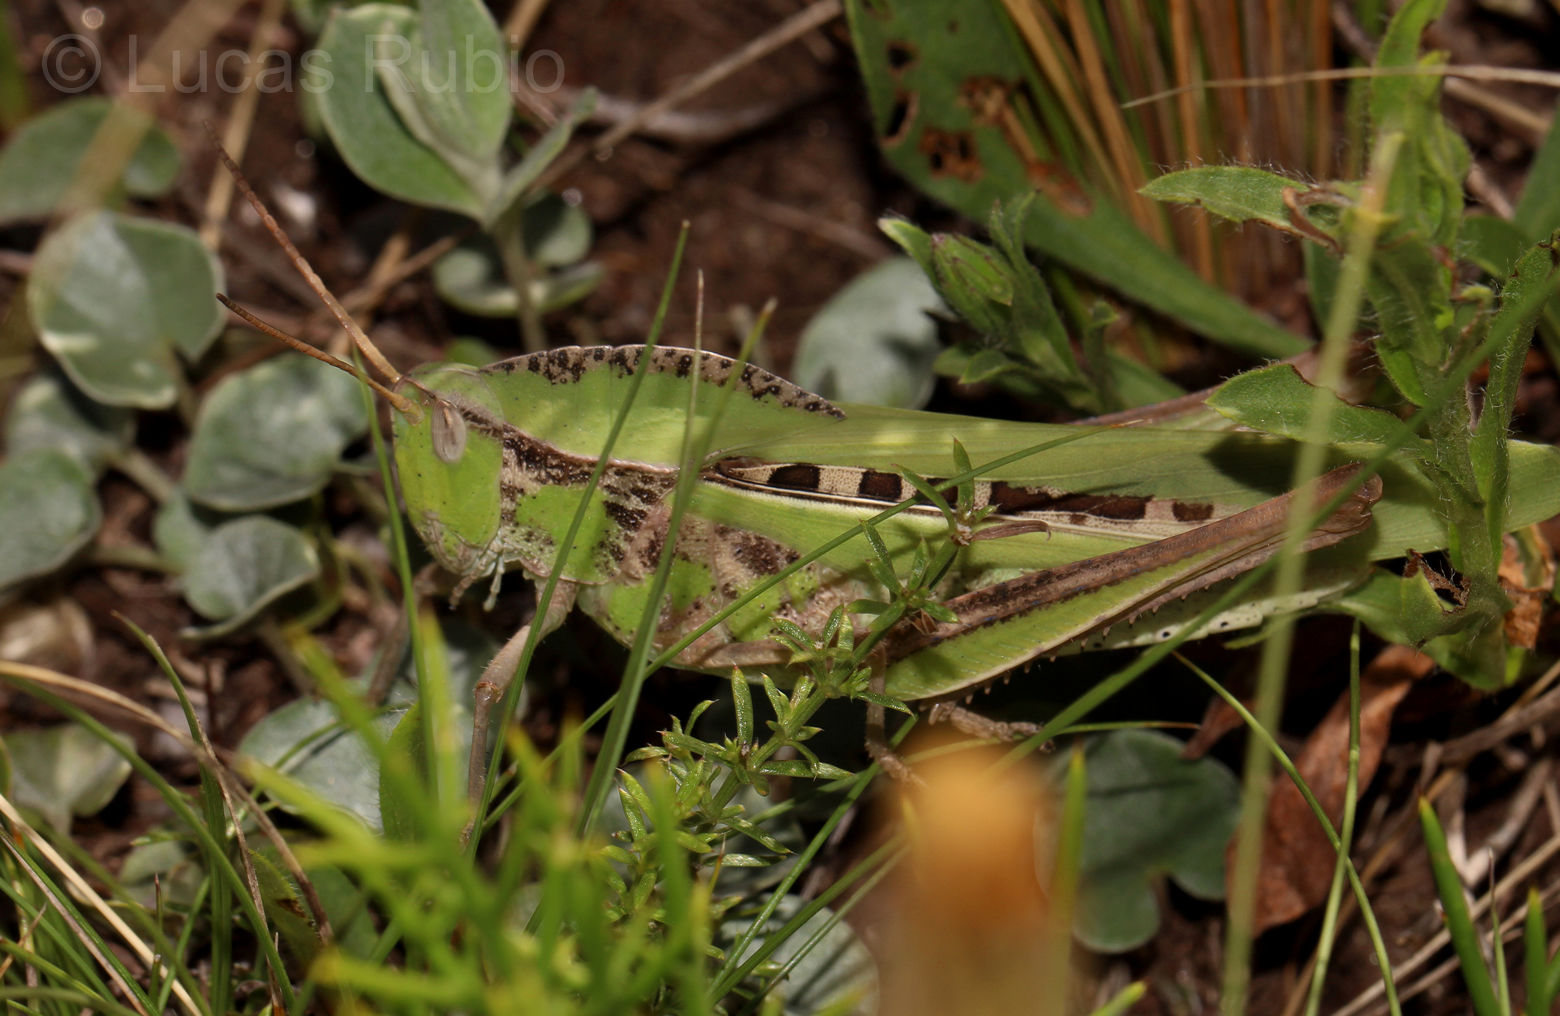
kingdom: Animalia
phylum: Arthropoda
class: Insecta
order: Orthoptera
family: Romaleidae
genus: Xyleus
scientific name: Xyleus laevipes
